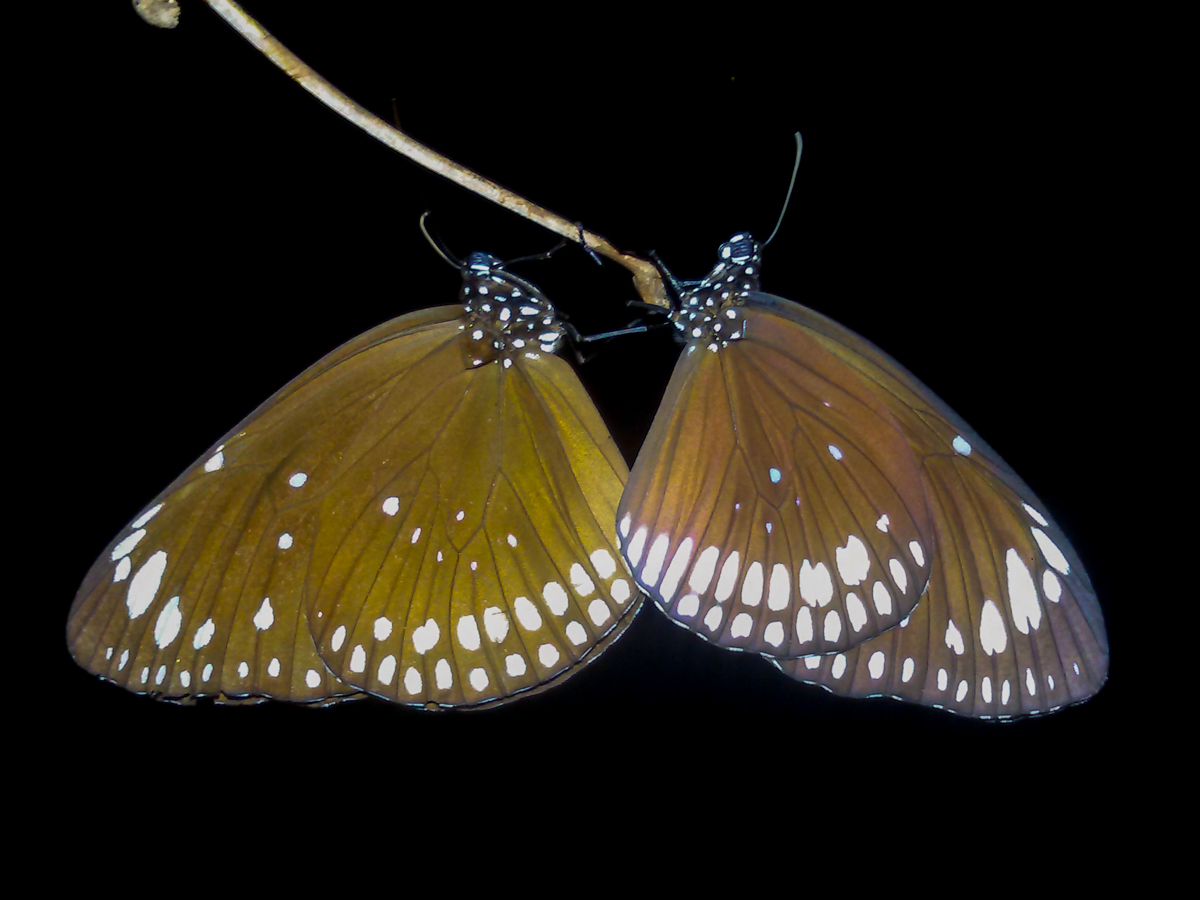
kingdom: Animalia
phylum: Arthropoda
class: Insecta
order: Lepidoptera
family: Nymphalidae
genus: Euploea
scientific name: Euploea crameri
